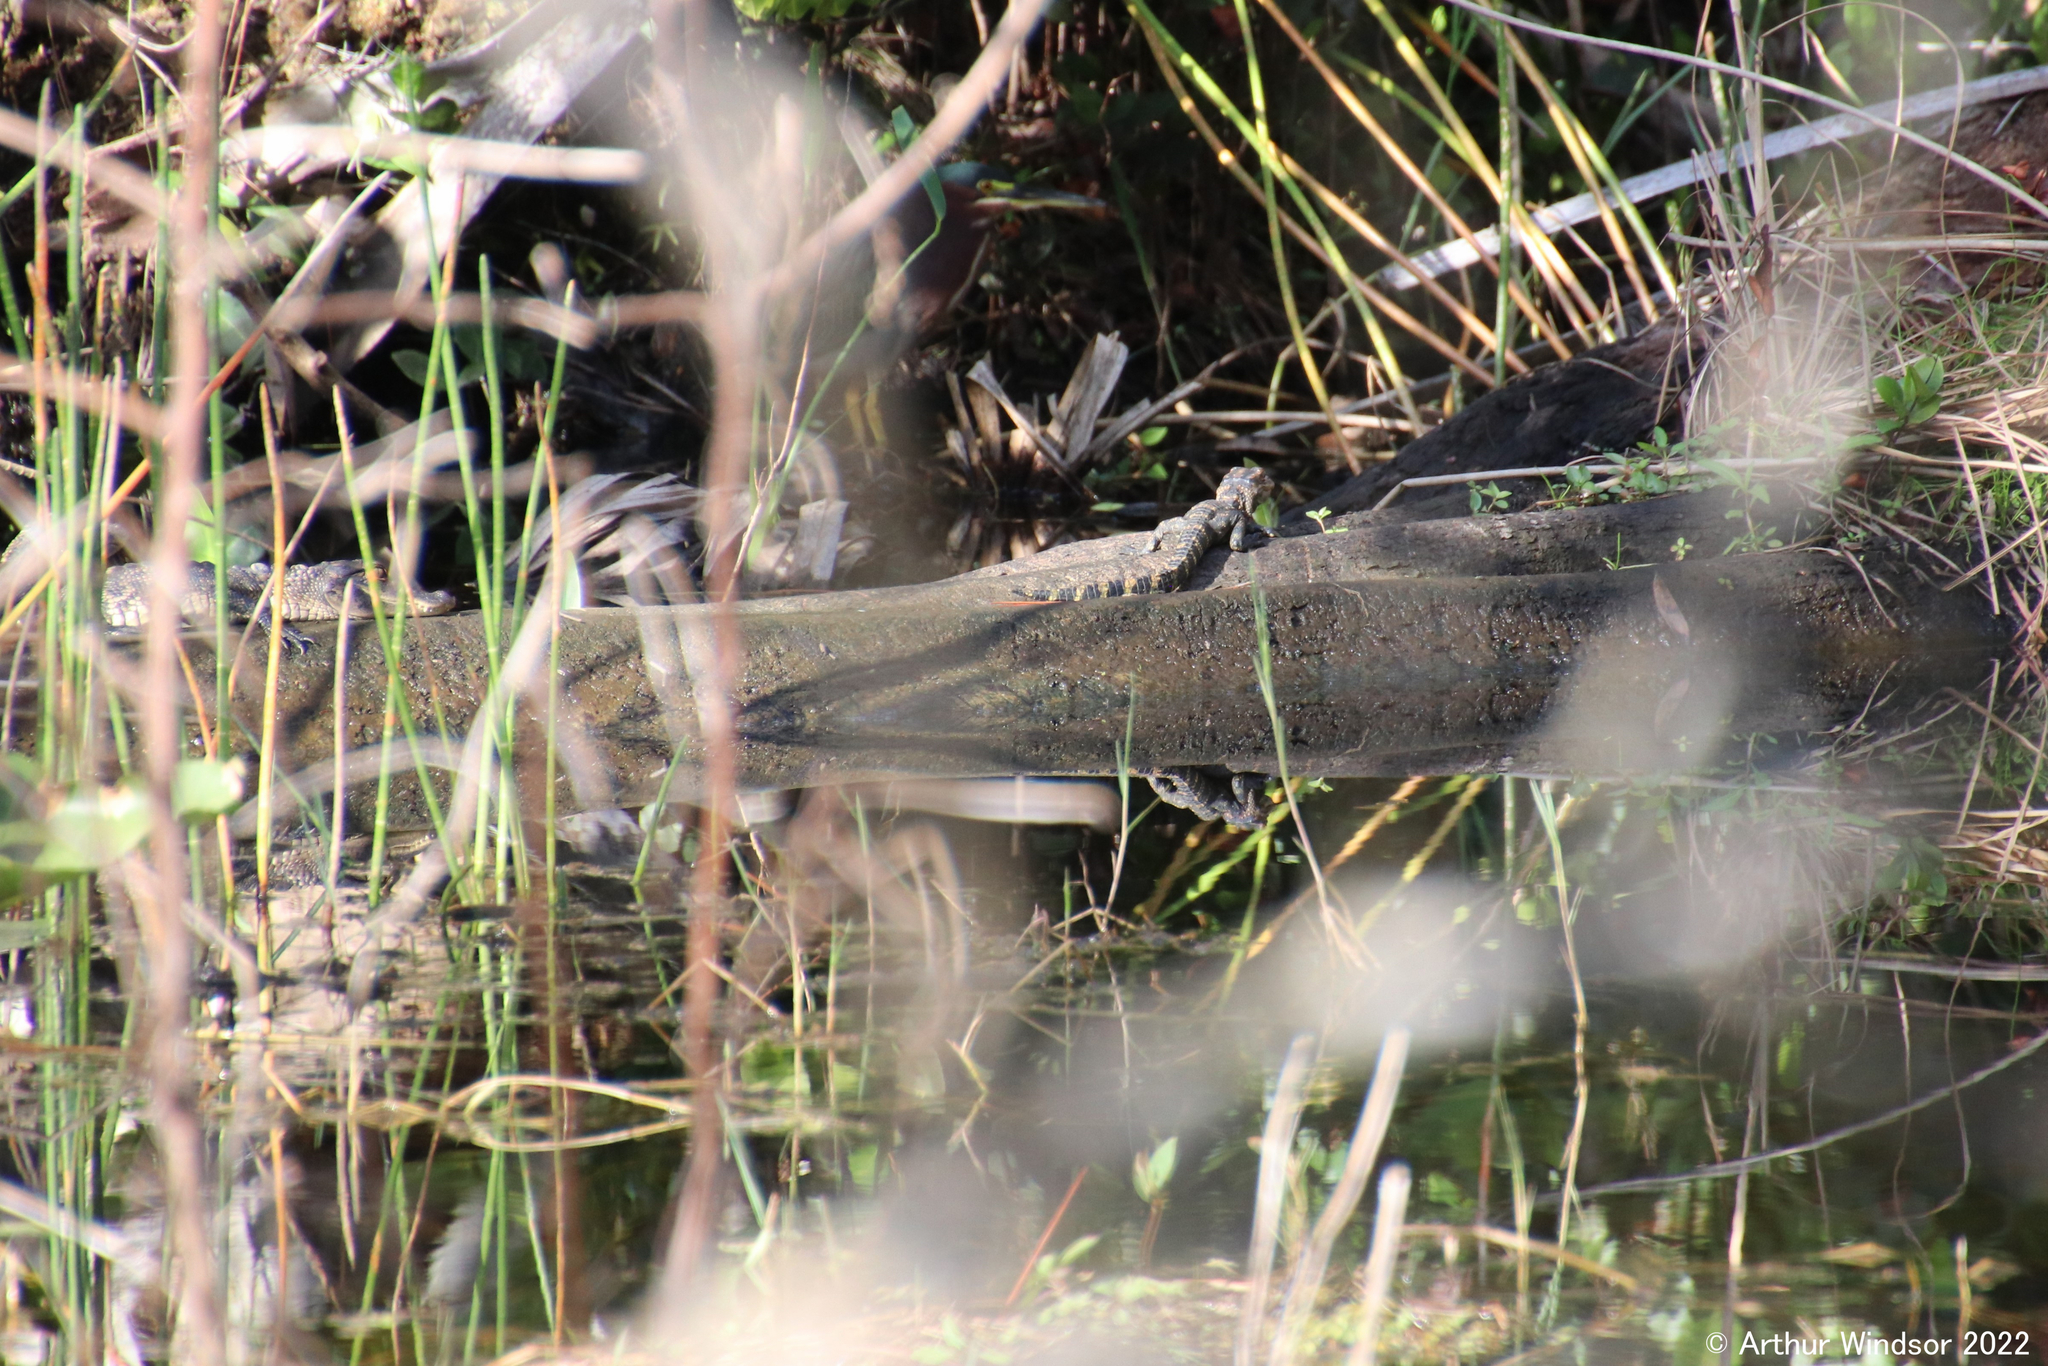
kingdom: Animalia
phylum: Chordata
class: Crocodylia
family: Alligatoridae
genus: Alligator
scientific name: Alligator mississippiensis
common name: American alligator
